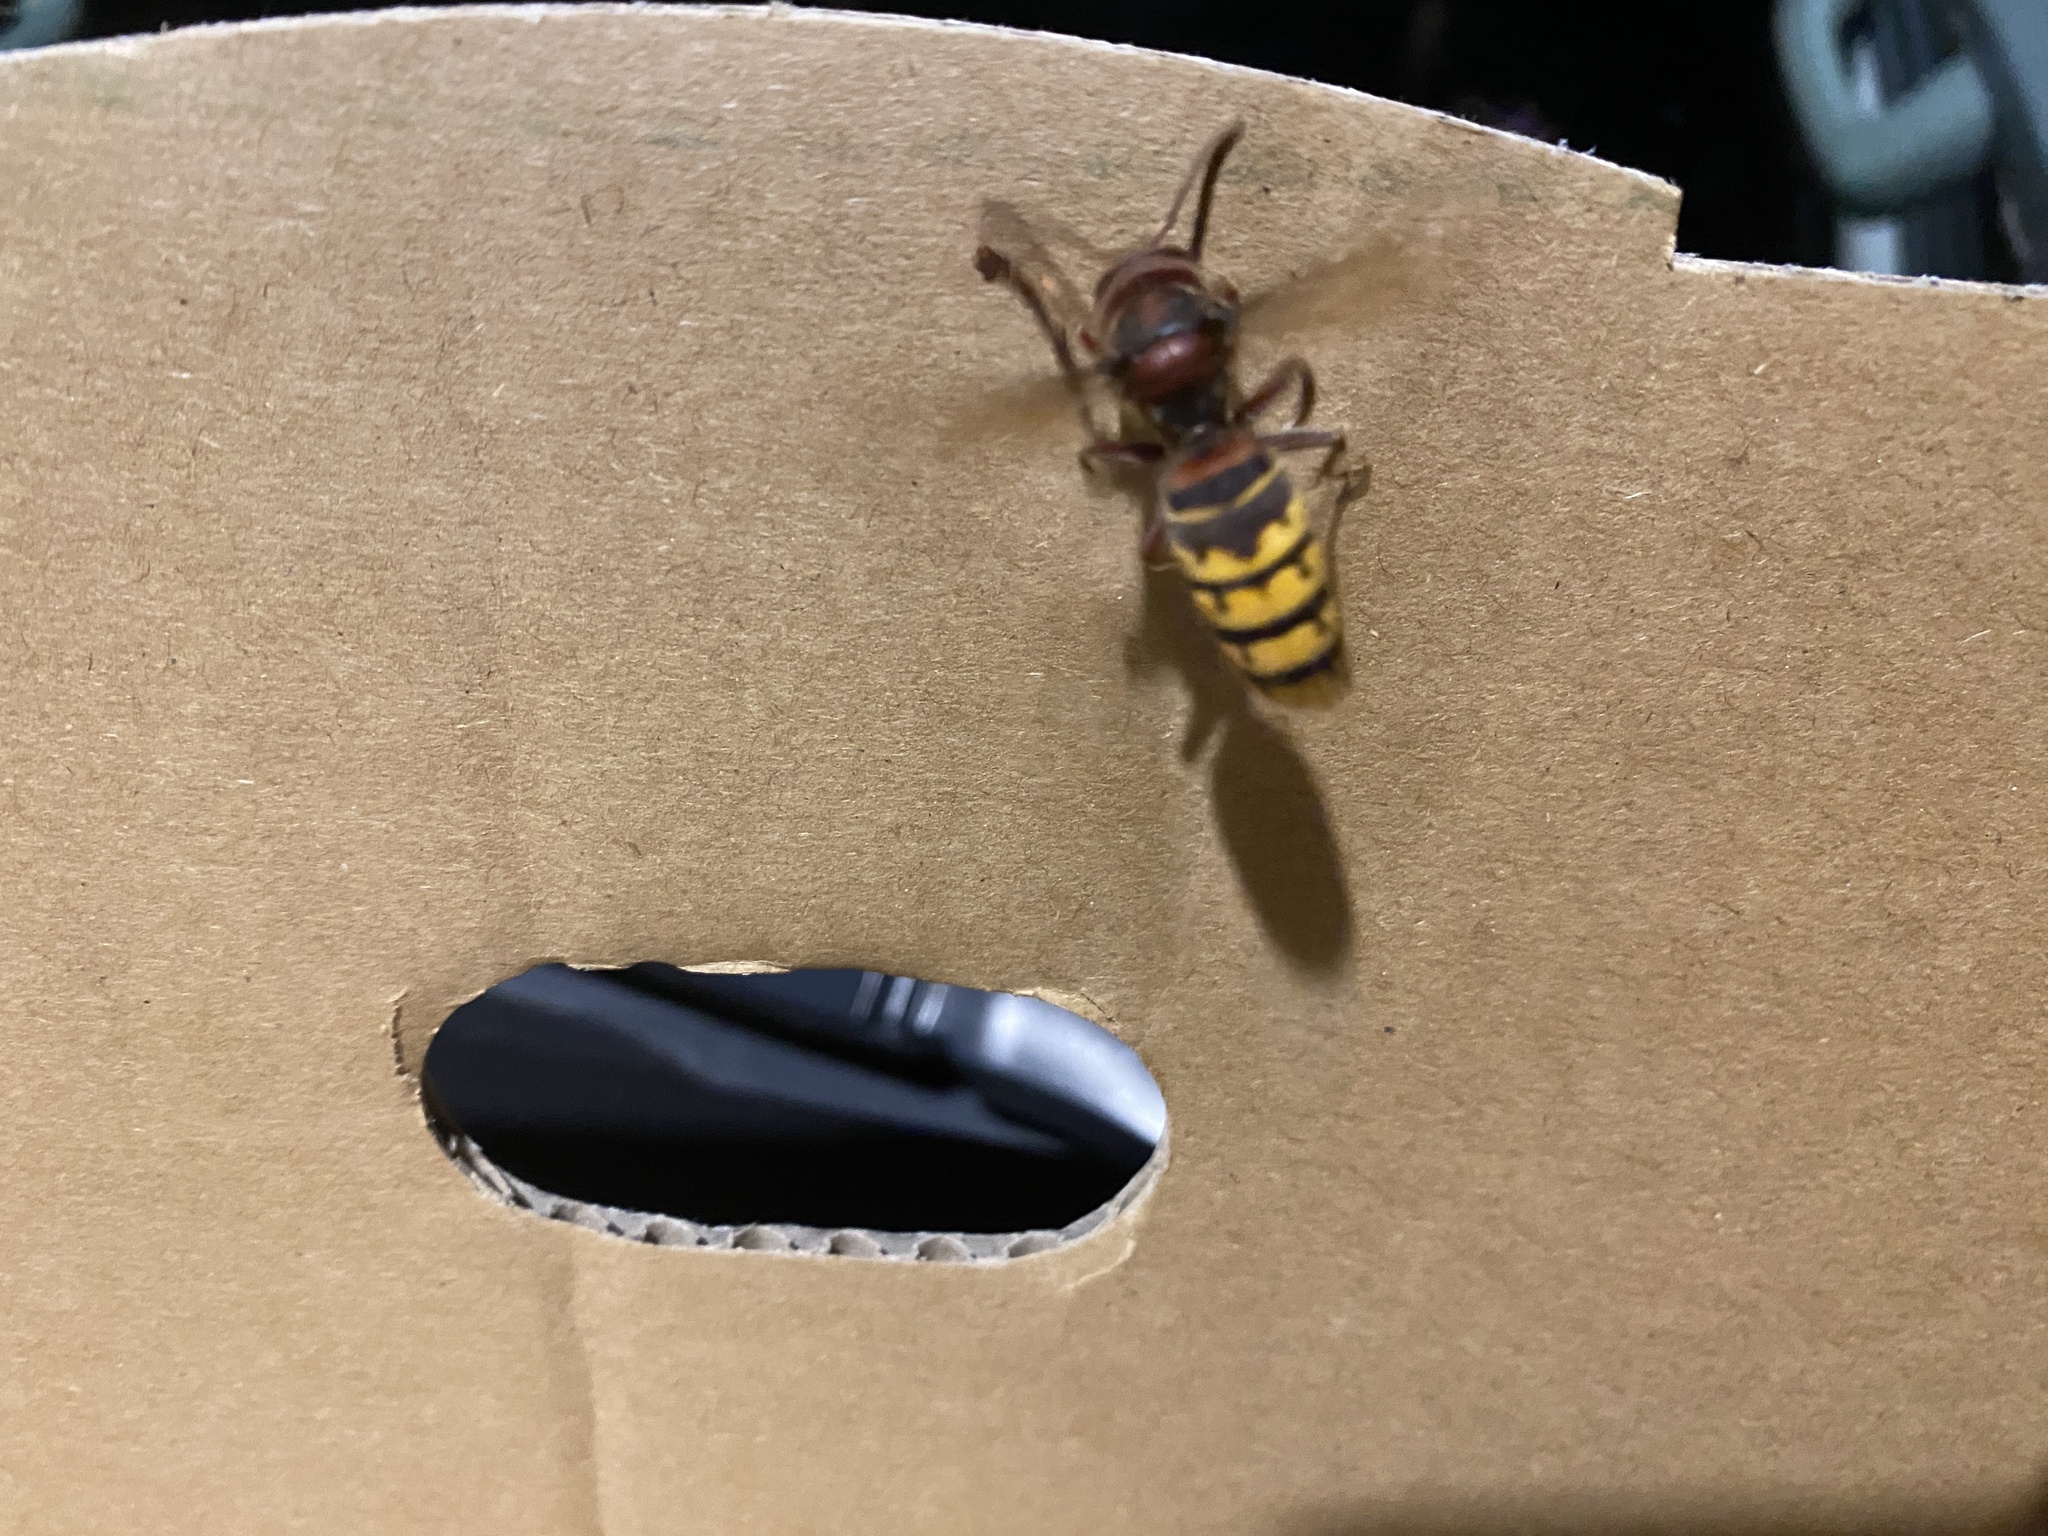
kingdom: Animalia
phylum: Arthropoda
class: Insecta
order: Hymenoptera
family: Vespidae
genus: Vespa
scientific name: Vespa crabro
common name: Hornet
